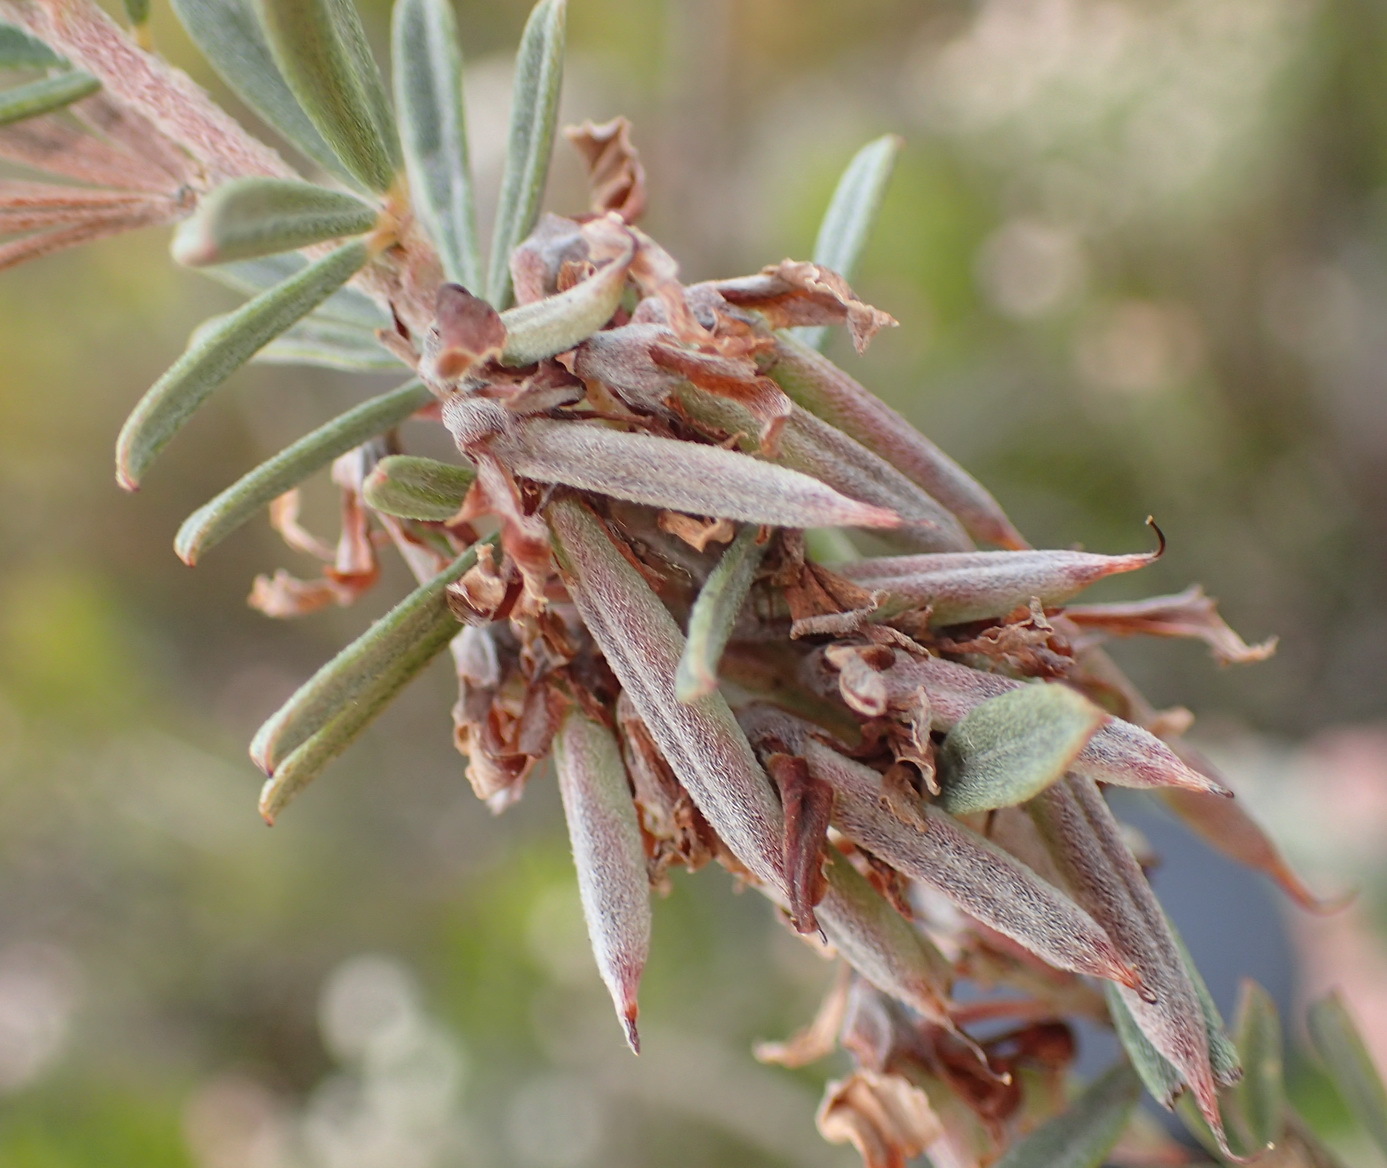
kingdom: Plantae
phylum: Tracheophyta
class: Magnoliopsida
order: Fabales
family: Fabaceae
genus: Indigofera
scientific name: Indigofera flabellata
